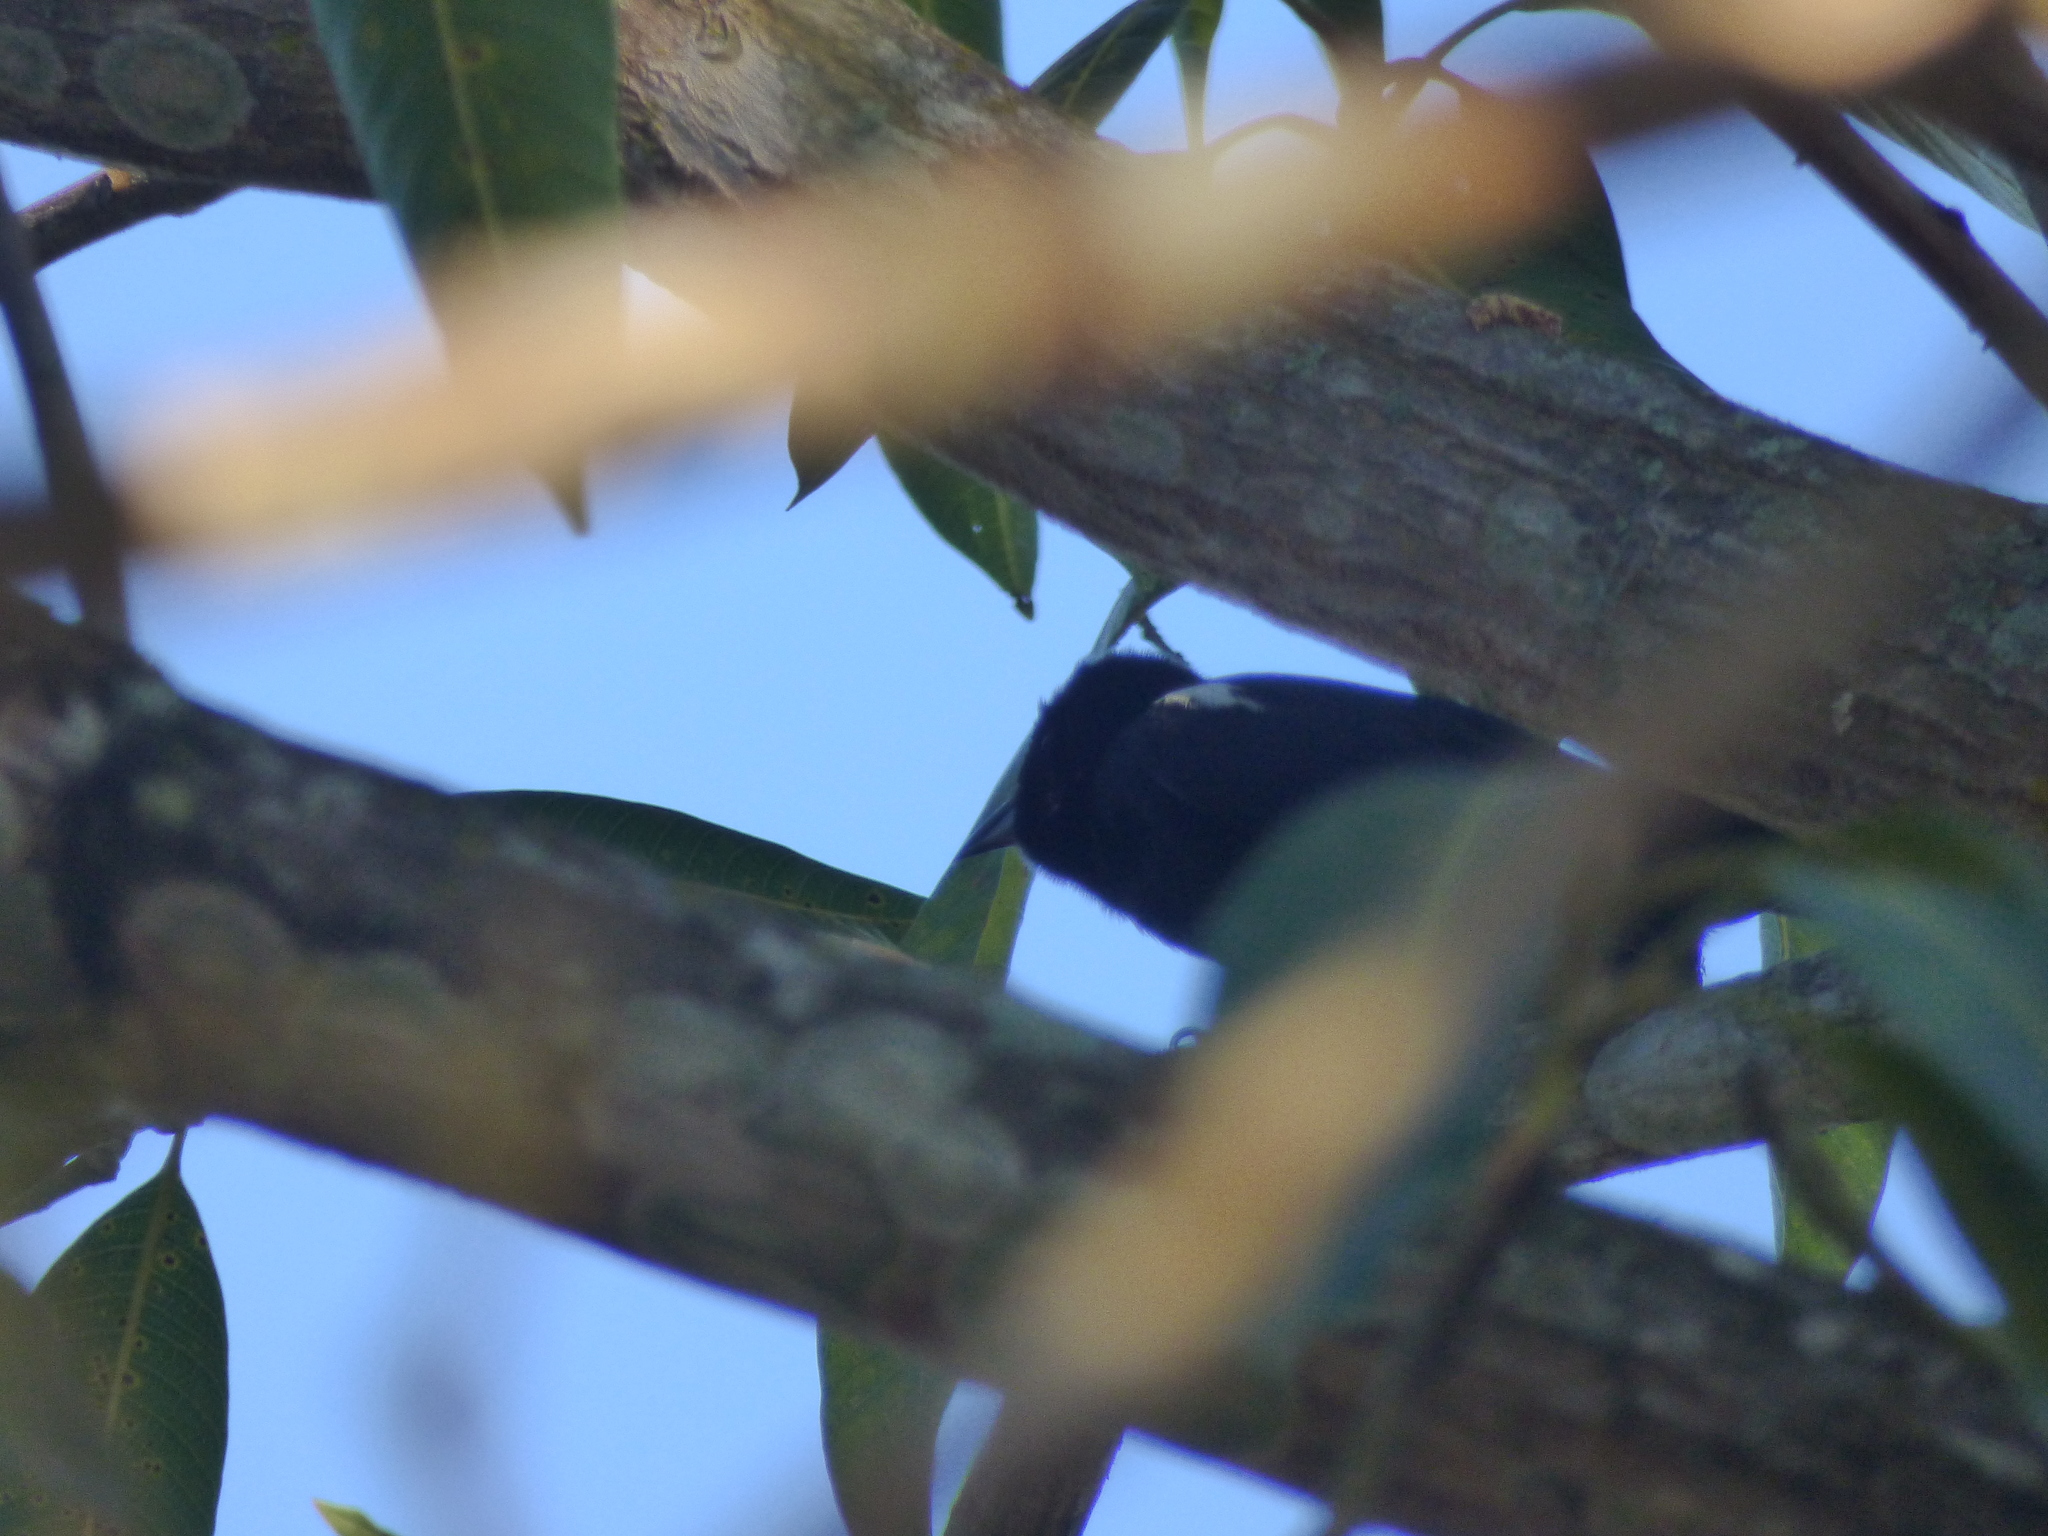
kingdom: Animalia
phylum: Chordata
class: Aves
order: Passeriformes
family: Thraupidae
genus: Loriotus
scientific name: Loriotus luctuosus
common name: White-shouldered tanager
